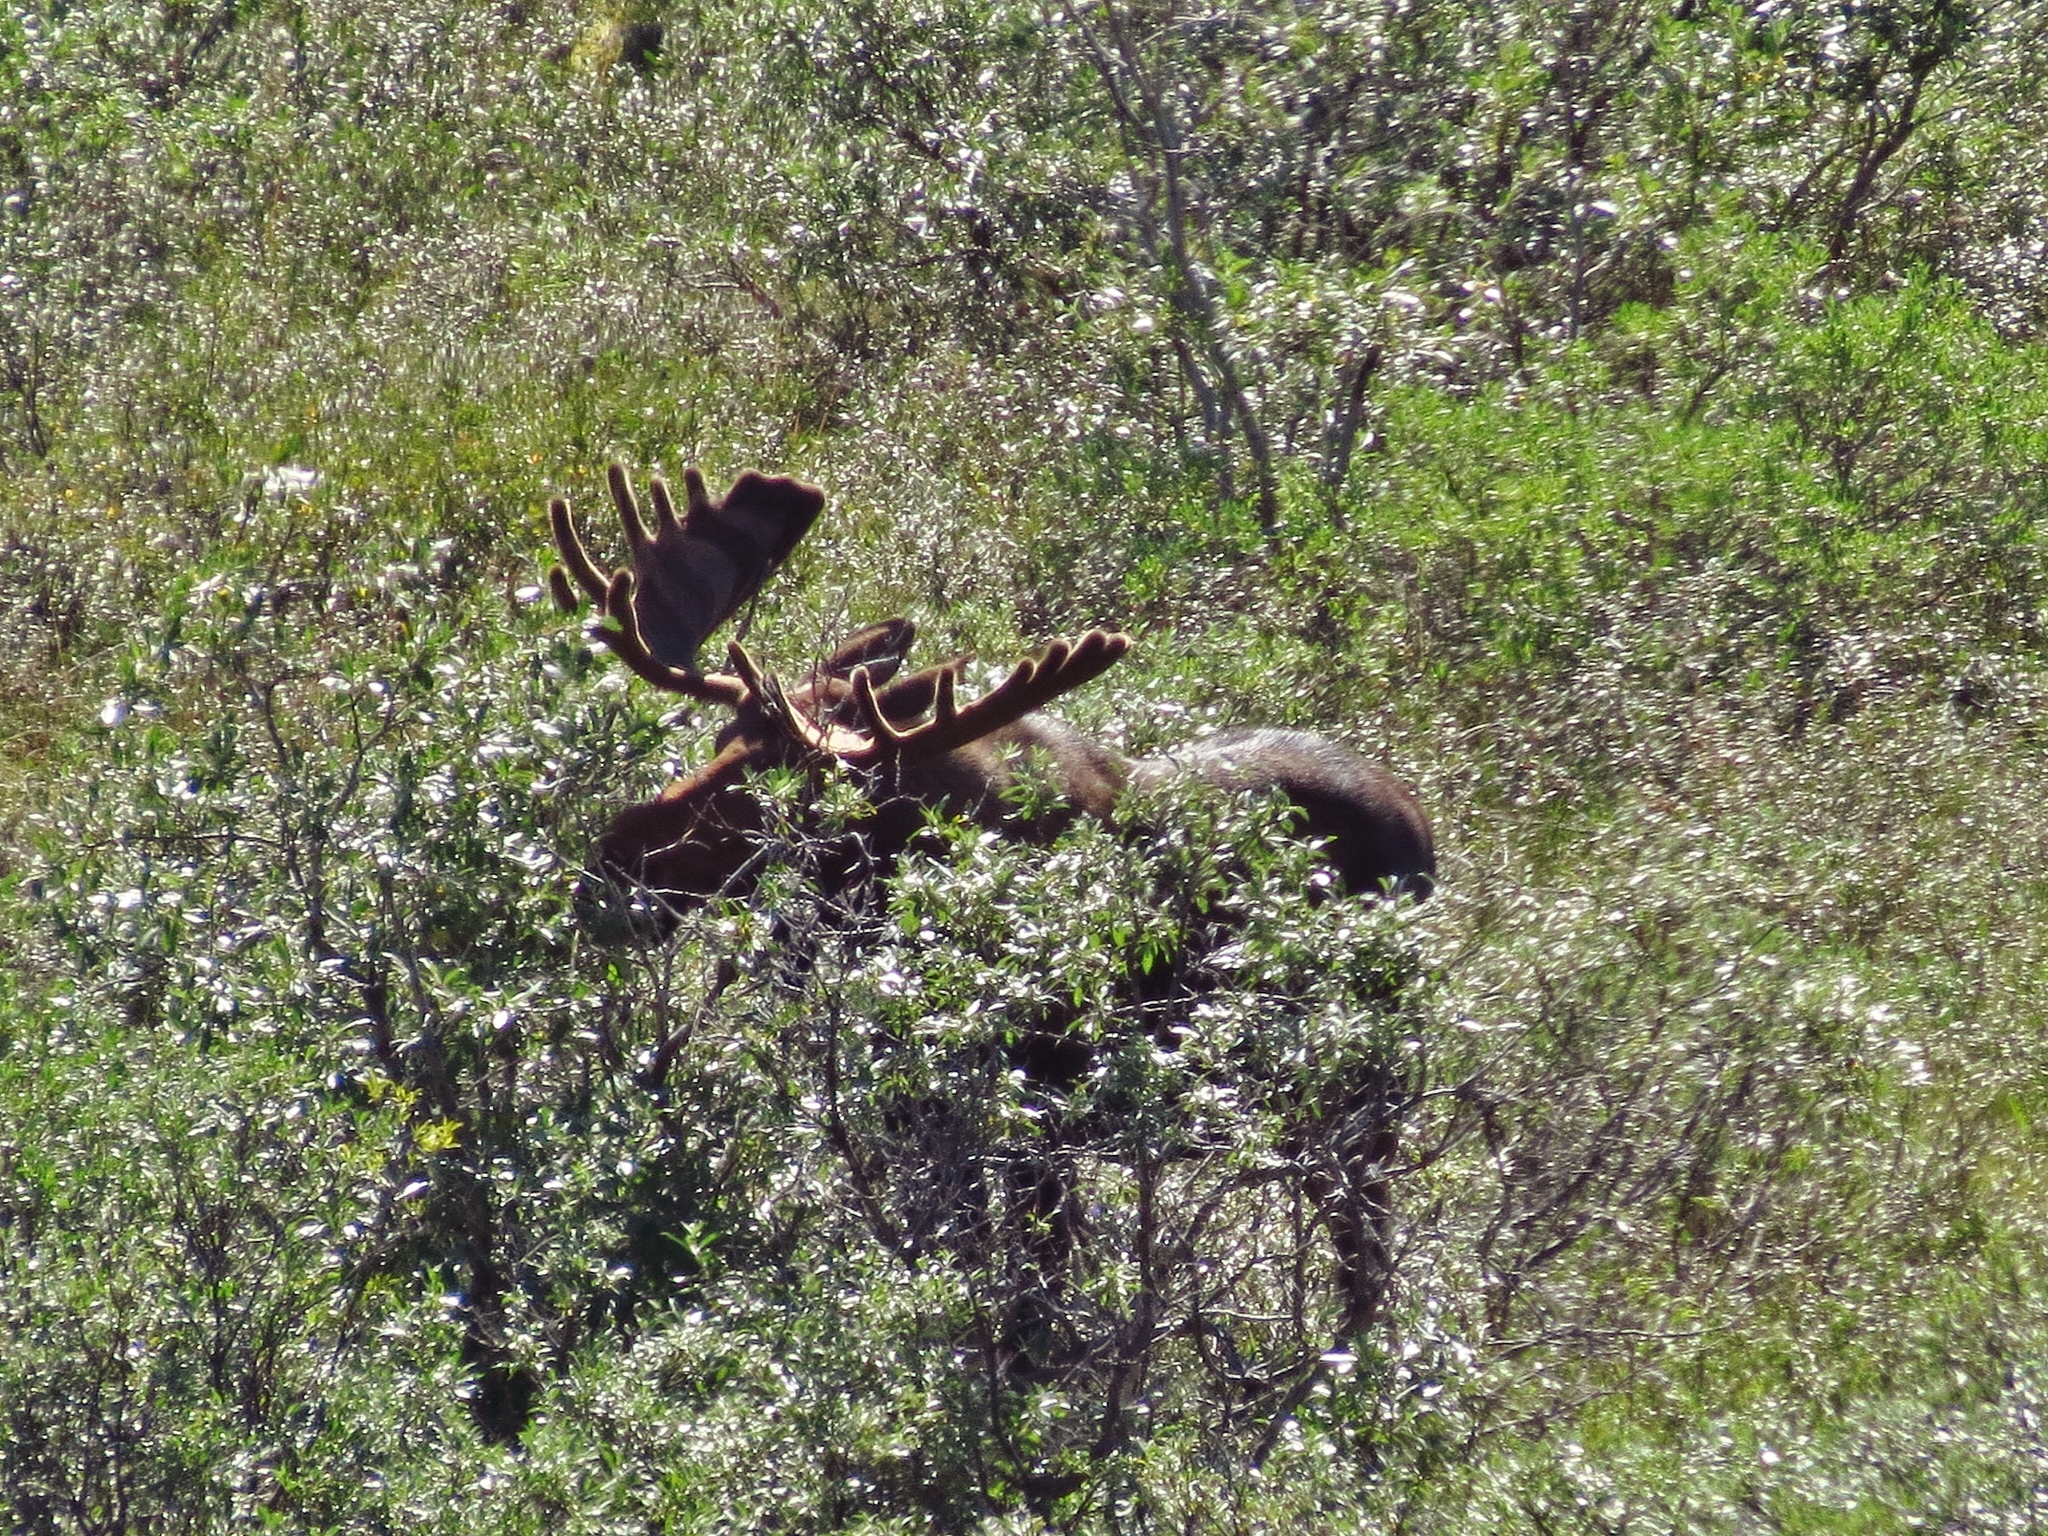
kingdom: Animalia
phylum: Chordata
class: Mammalia
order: Artiodactyla
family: Cervidae
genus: Alces
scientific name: Alces alces
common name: Moose
